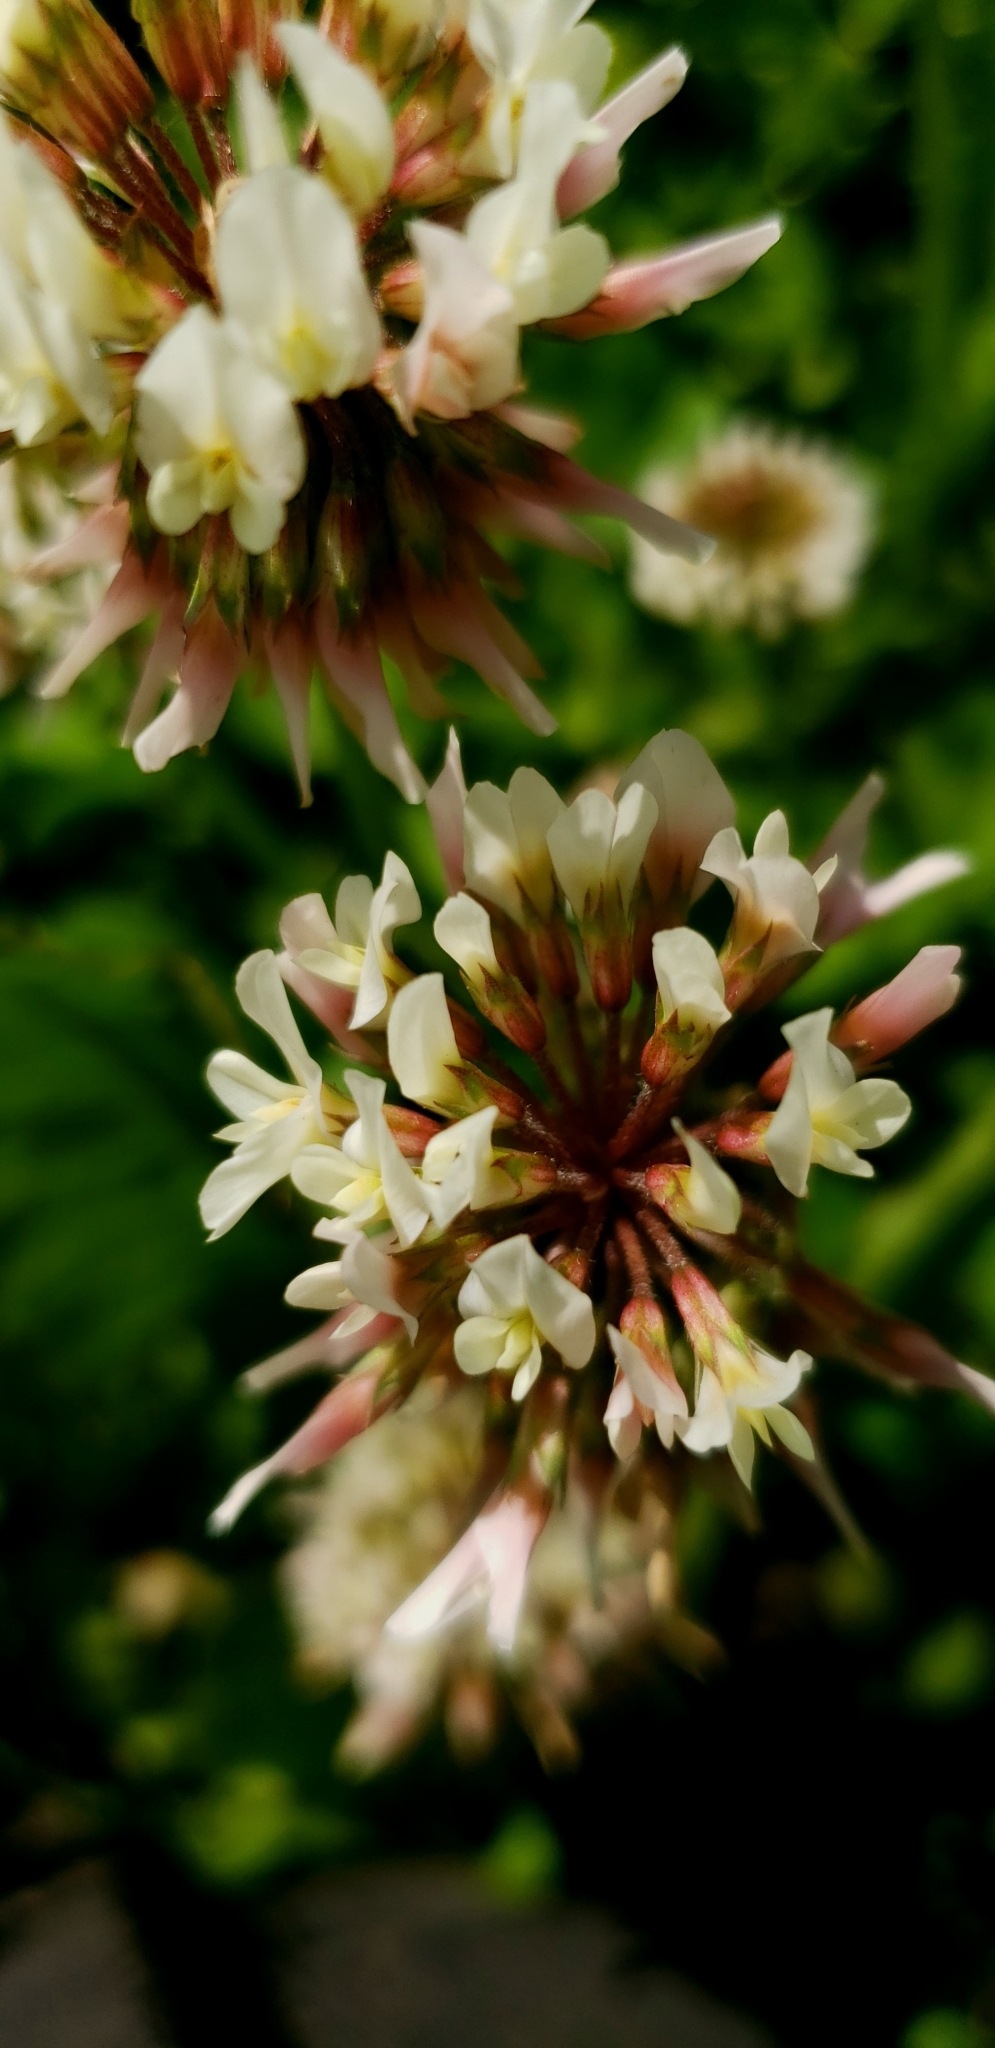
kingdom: Plantae
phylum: Tracheophyta
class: Magnoliopsida
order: Fabales
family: Fabaceae
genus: Trifolium
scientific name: Trifolium repens
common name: White clover
